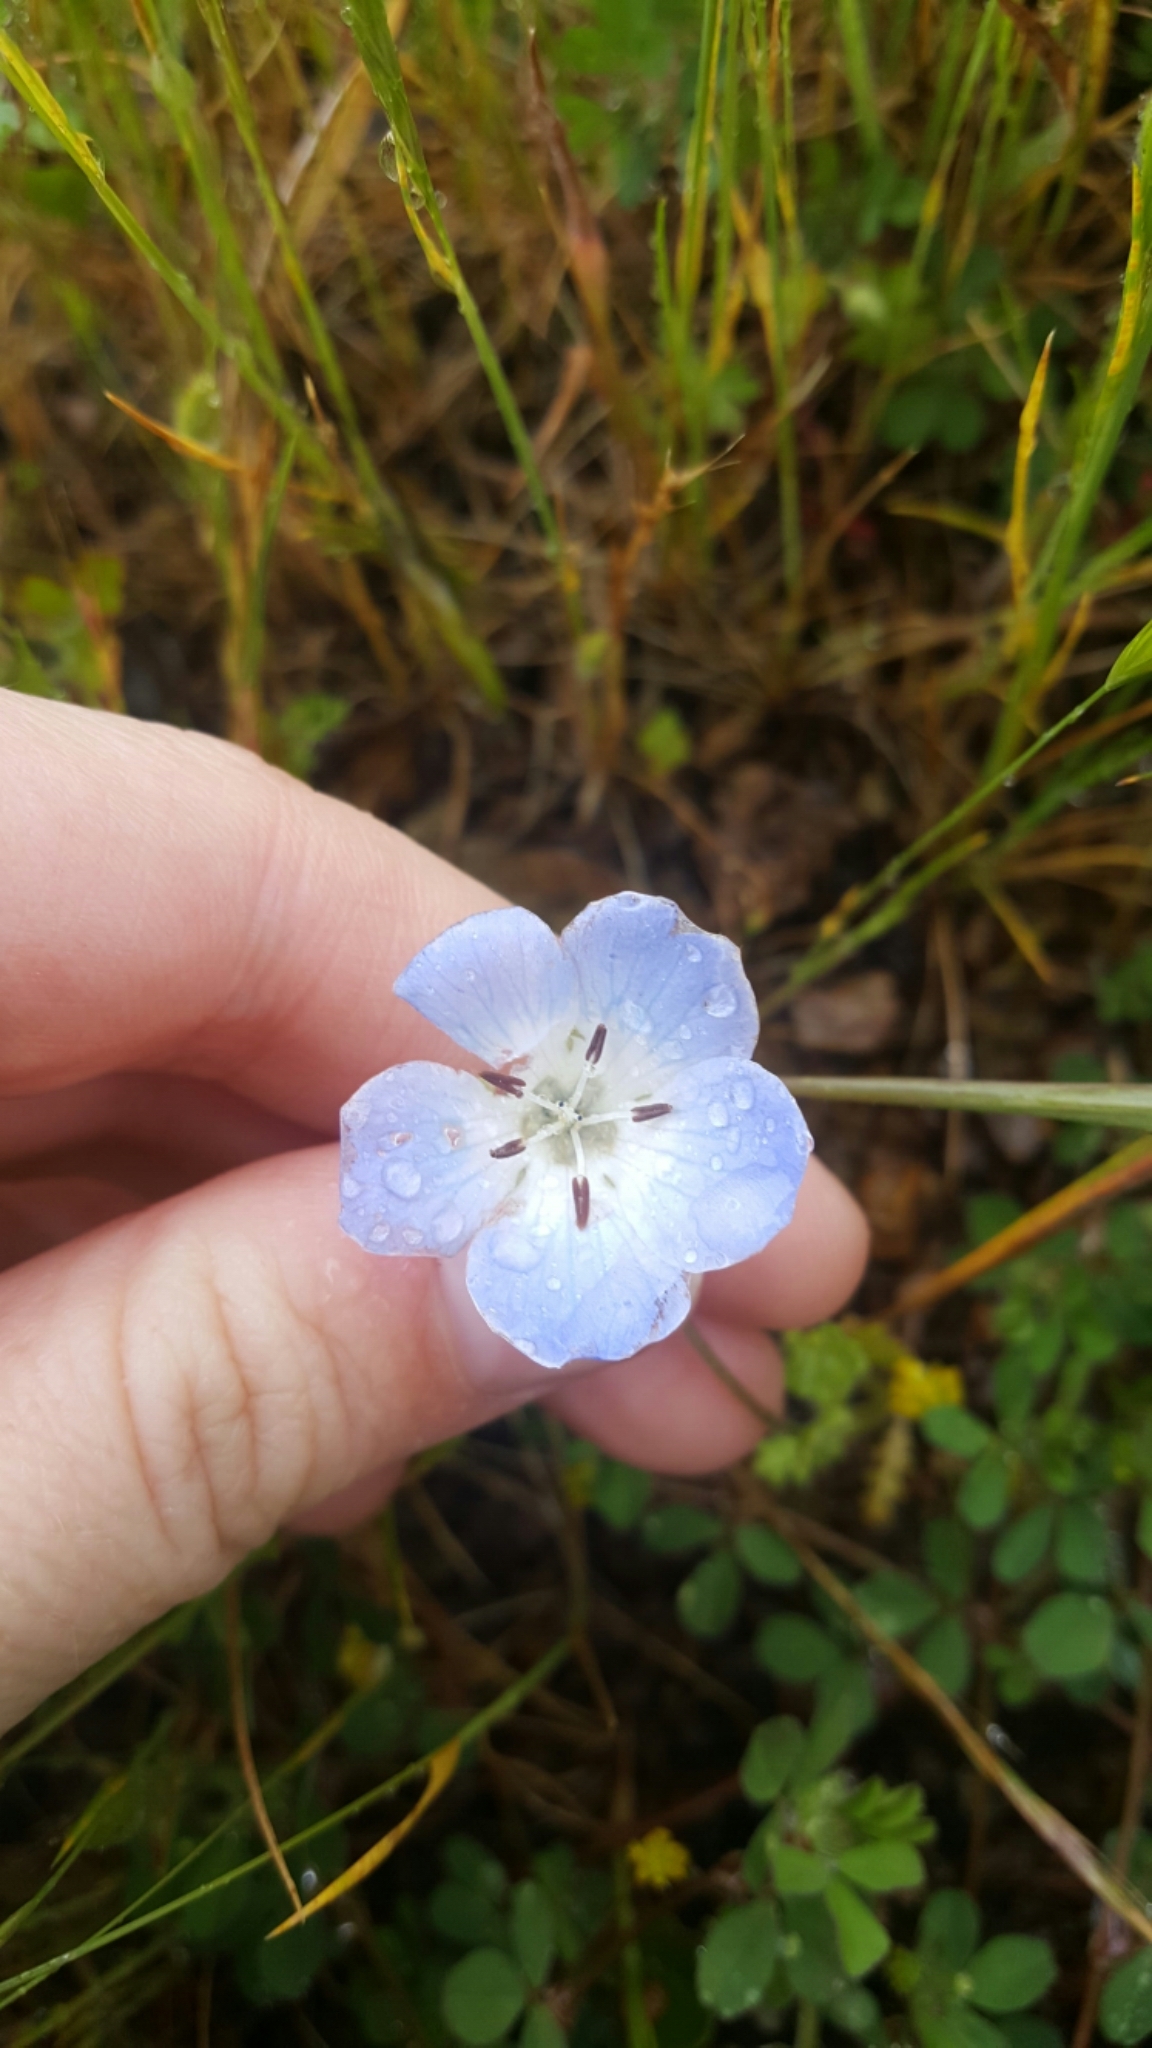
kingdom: Plantae
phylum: Tracheophyta
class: Magnoliopsida
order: Boraginales
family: Hydrophyllaceae
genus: Nemophila
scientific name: Nemophila menziesii
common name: Baby's-blue-eyes
